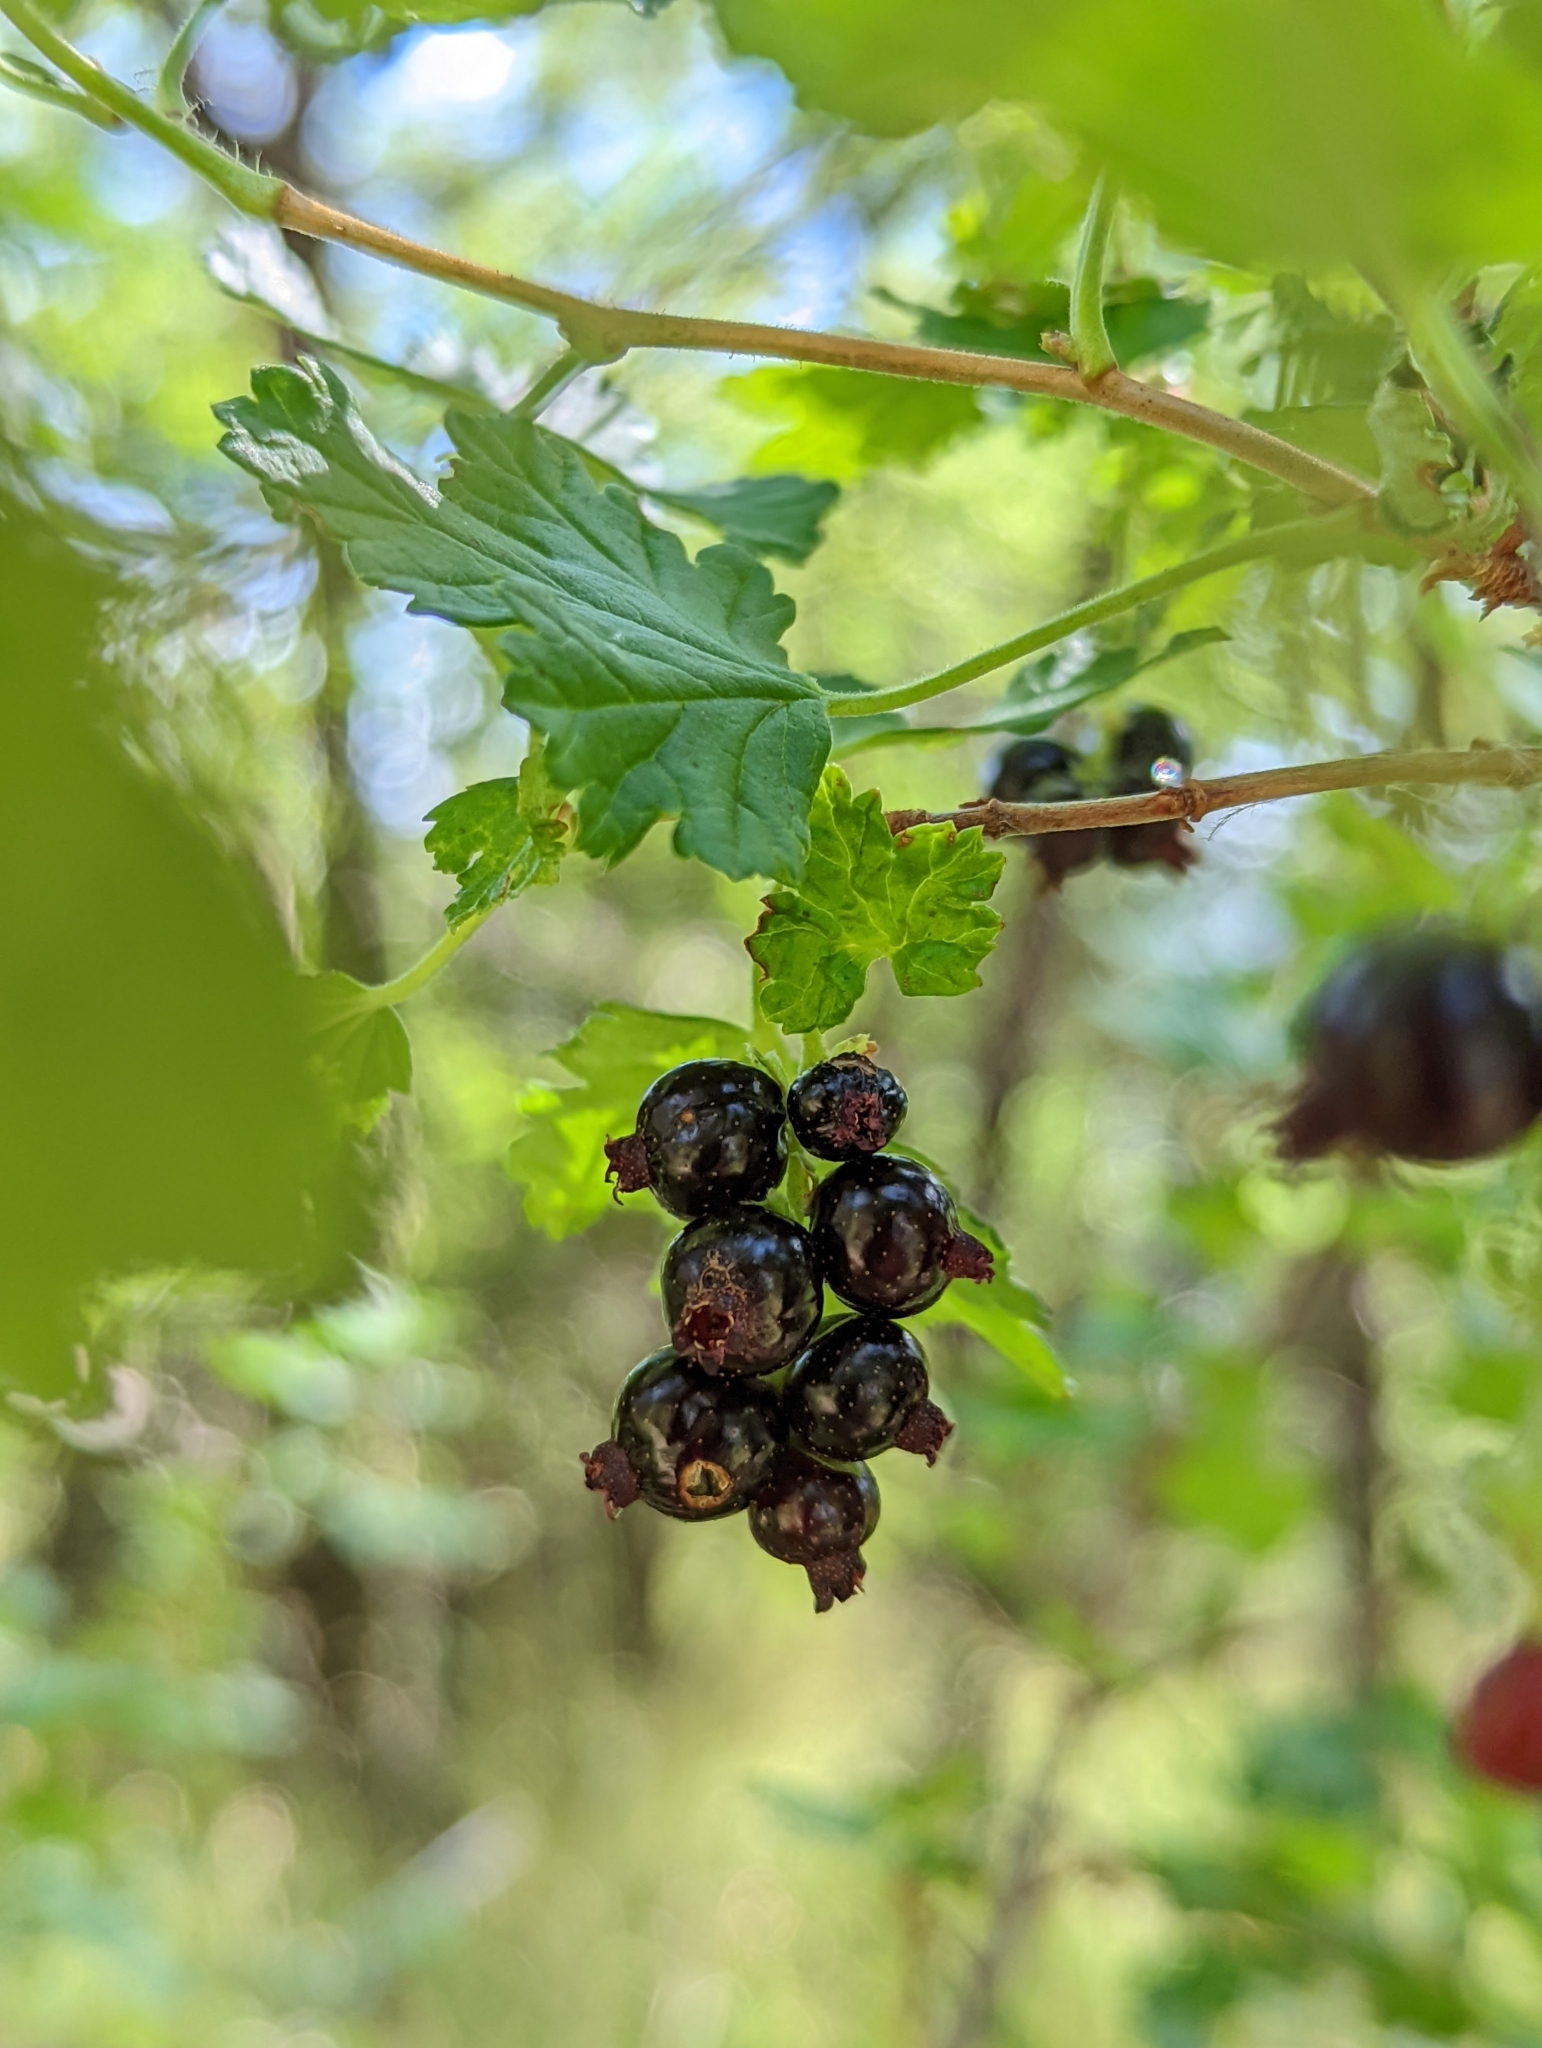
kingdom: Plantae
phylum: Tracheophyta
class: Magnoliopsida
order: Saxifragales
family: Grossulariaceae
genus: Ribes
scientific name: Ribes magellanicum
